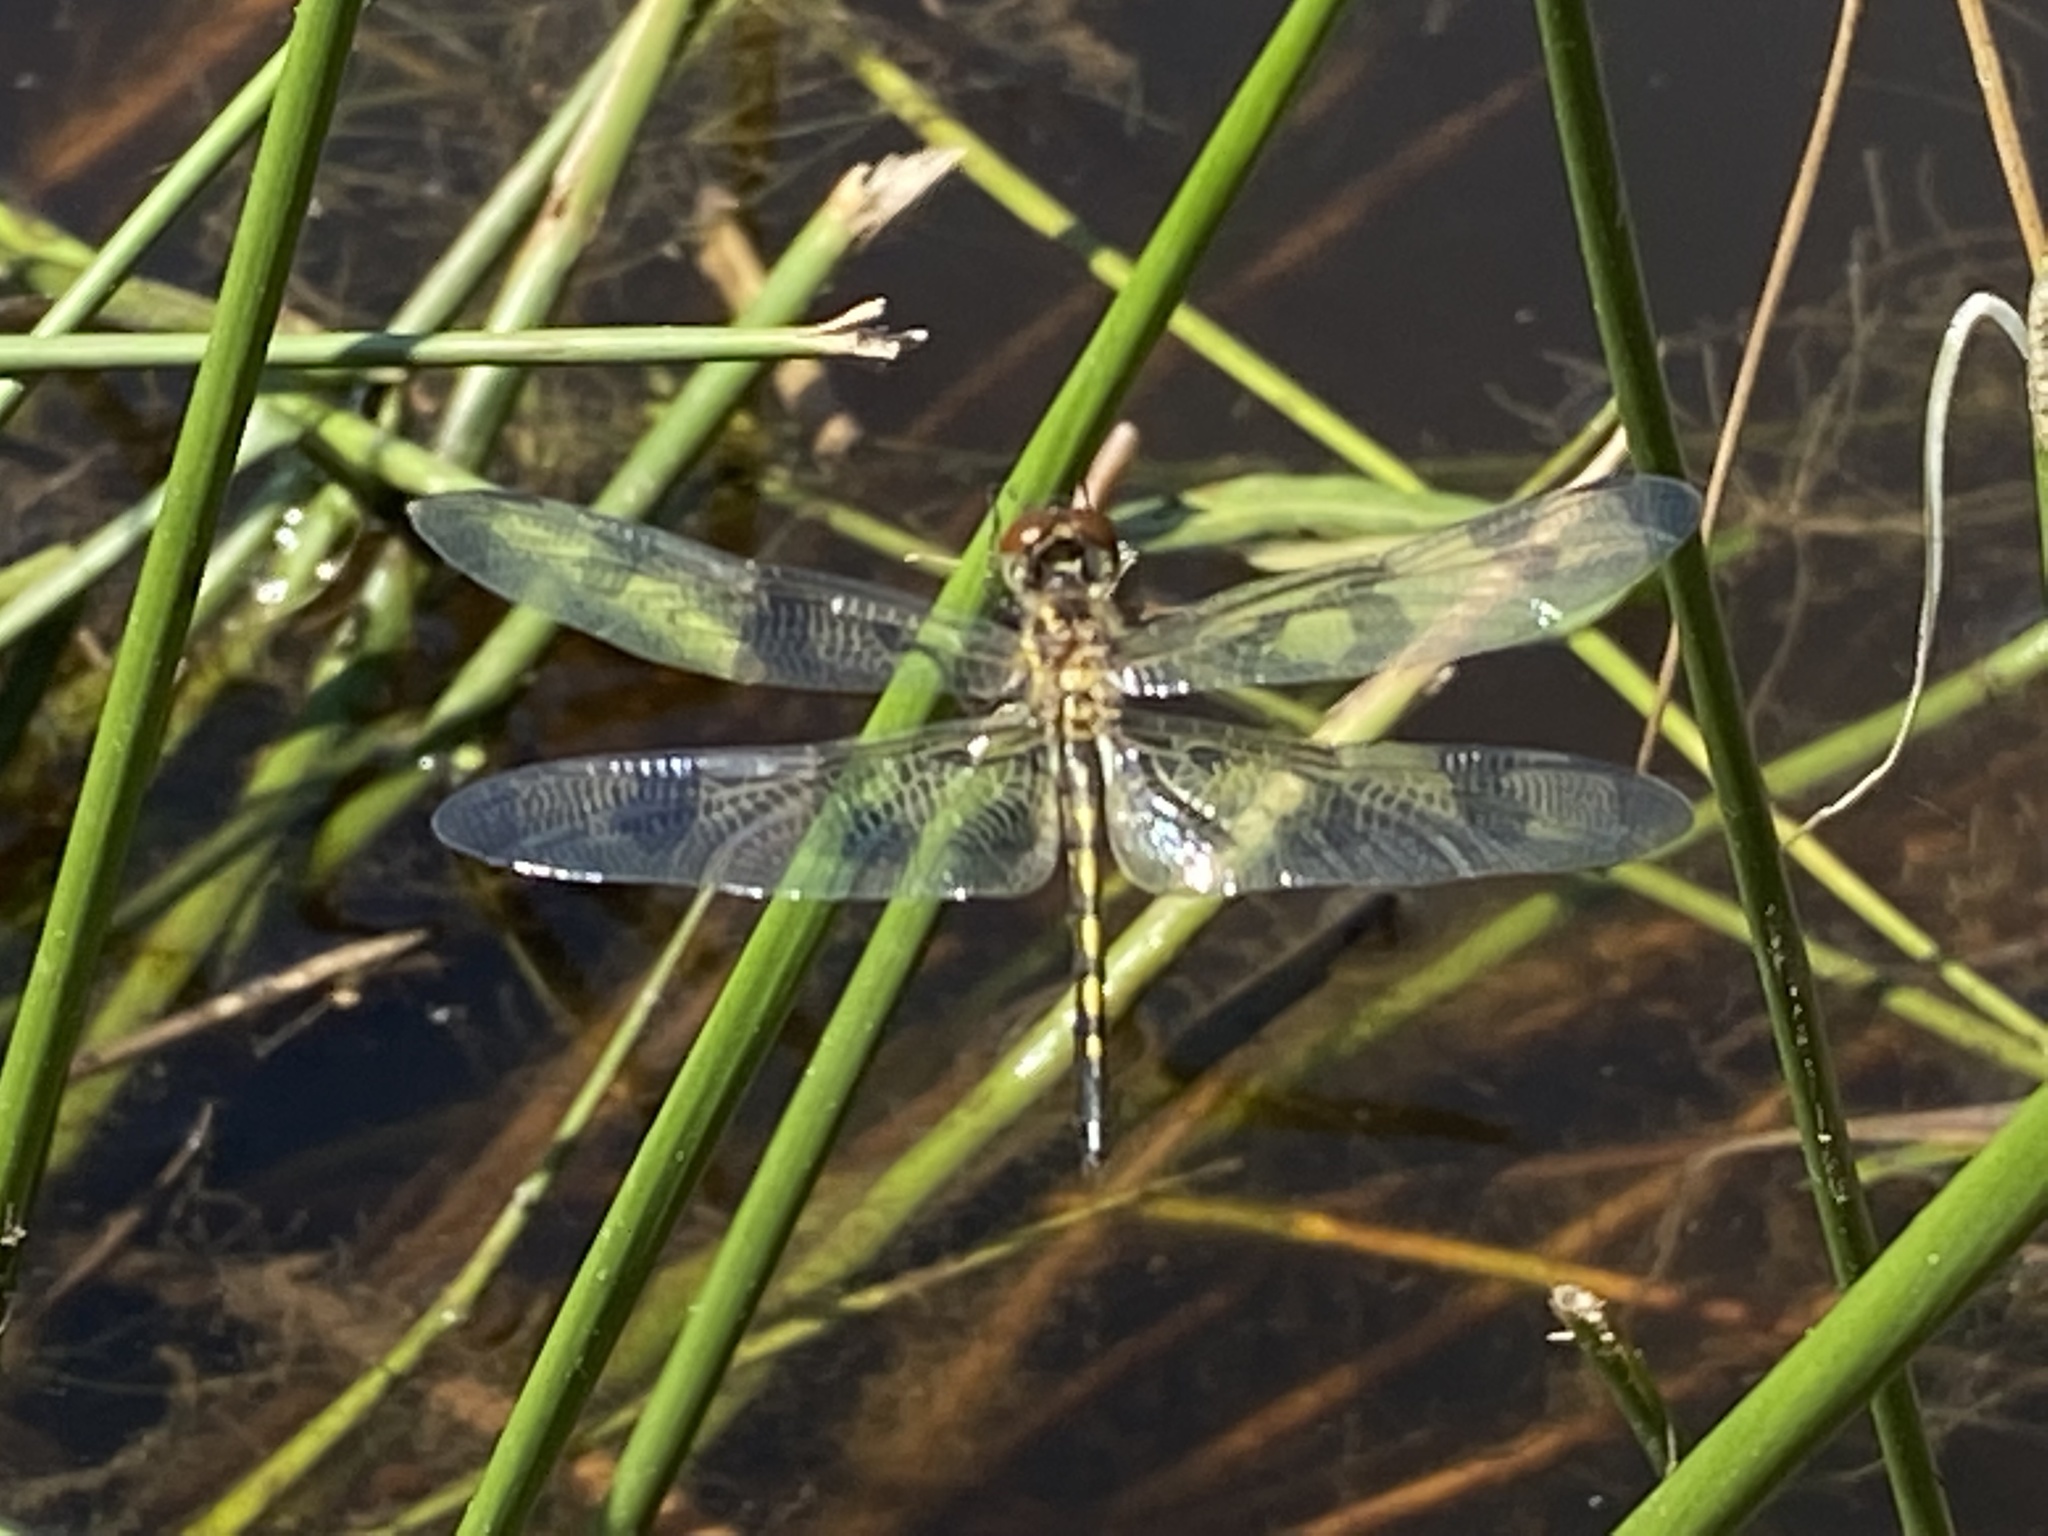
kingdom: Animalia
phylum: Arthropoda
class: Insecta
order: Odonata
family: Libellulidae
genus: Celithemis
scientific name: Celithemis fasciata
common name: Banded pennant
